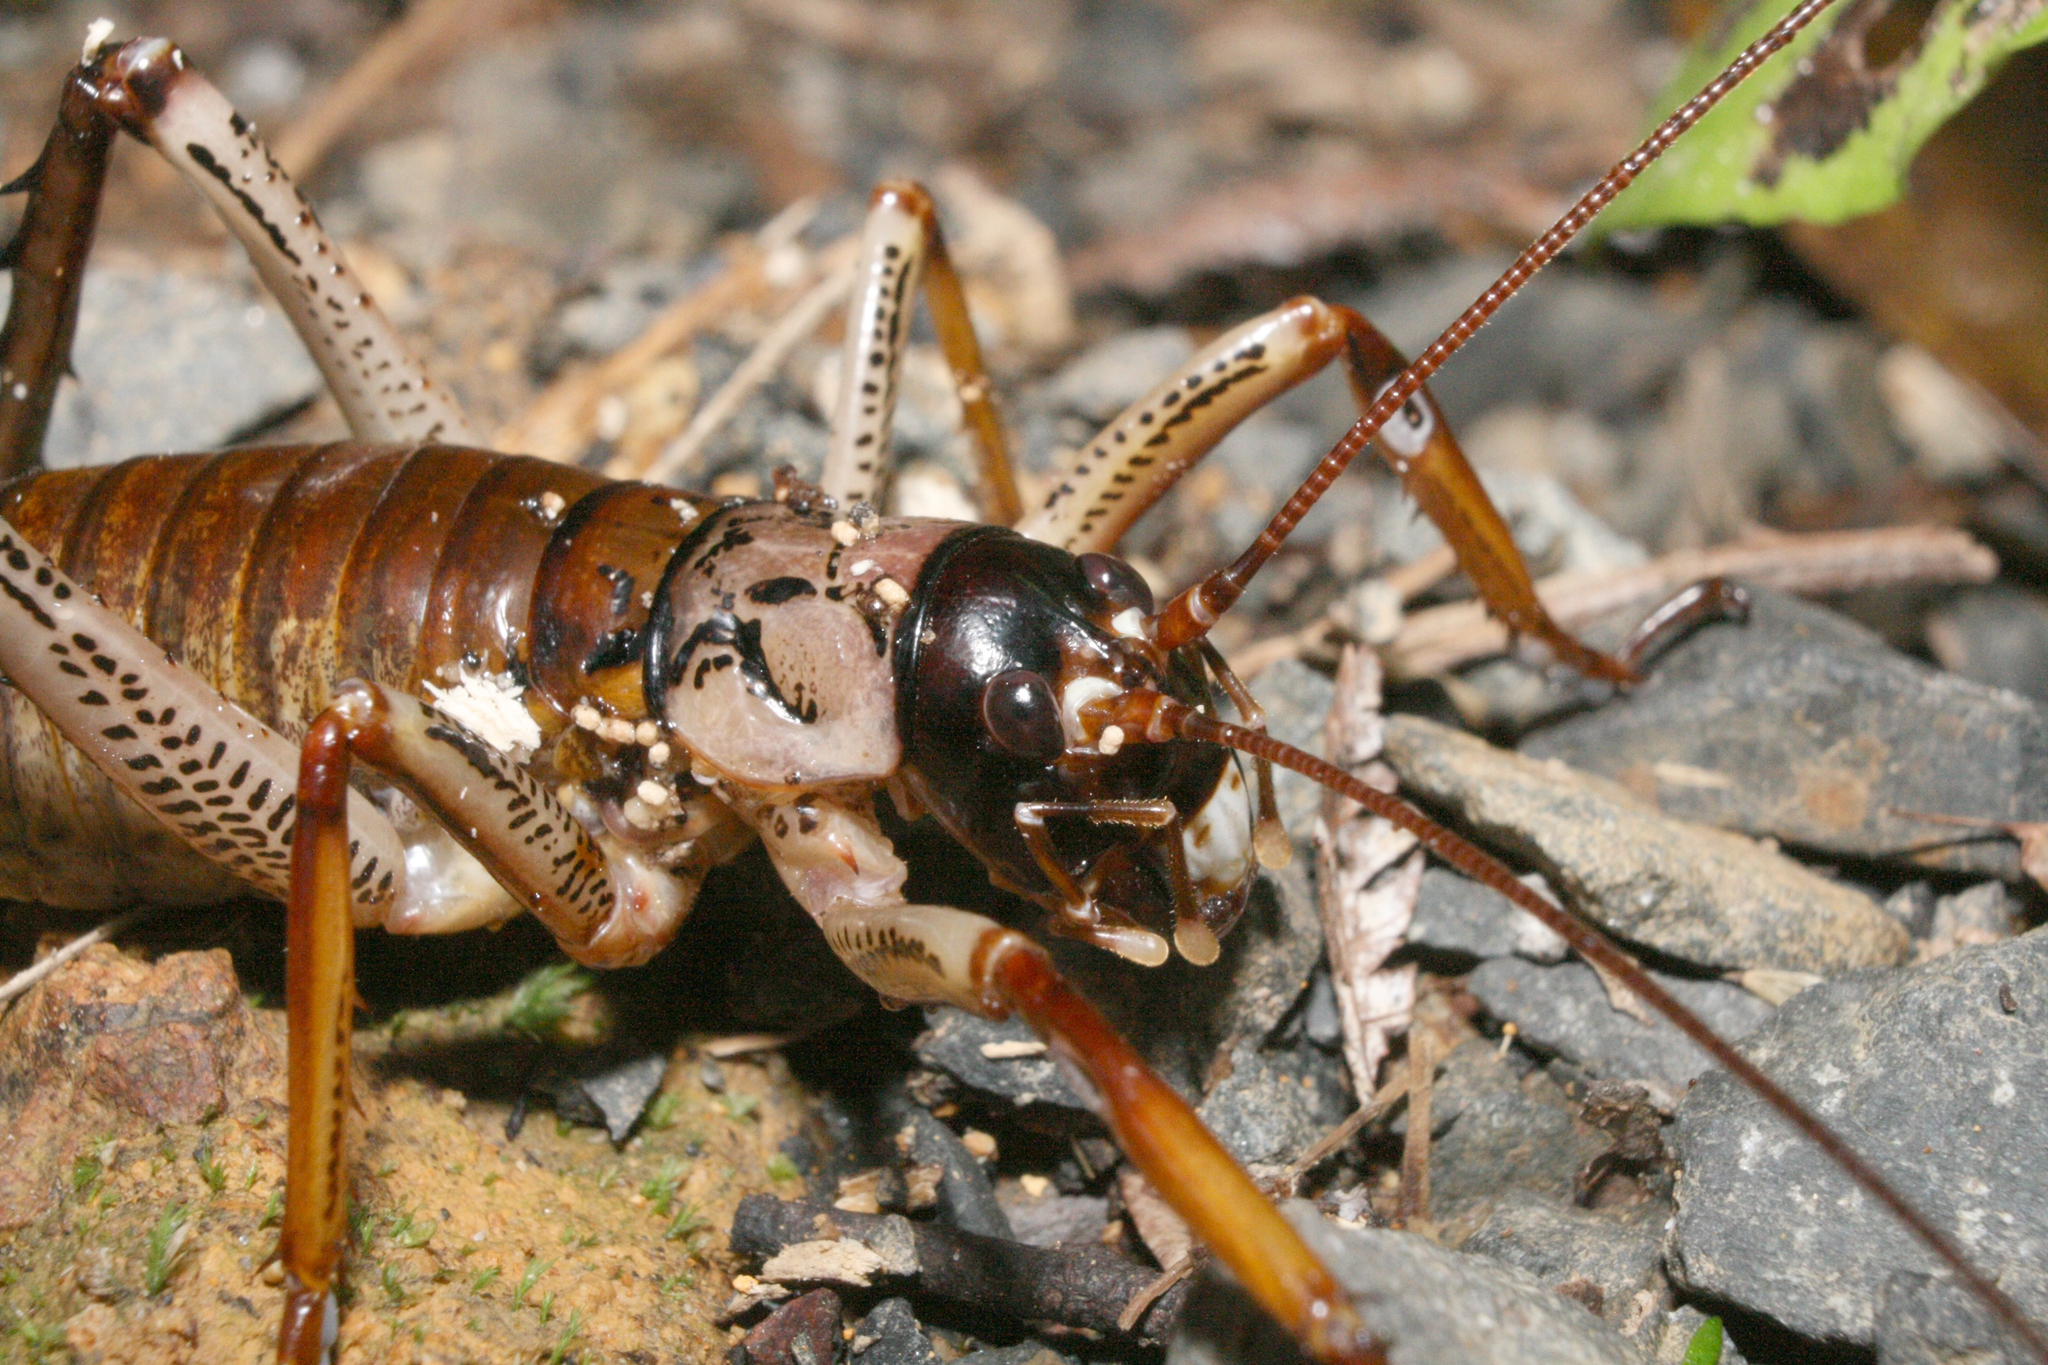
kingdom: Animalia
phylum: Arthropoda
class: Insecta
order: Orthoptera
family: Anostostomatidae
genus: Hemideina
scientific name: Hemideina thoracica
